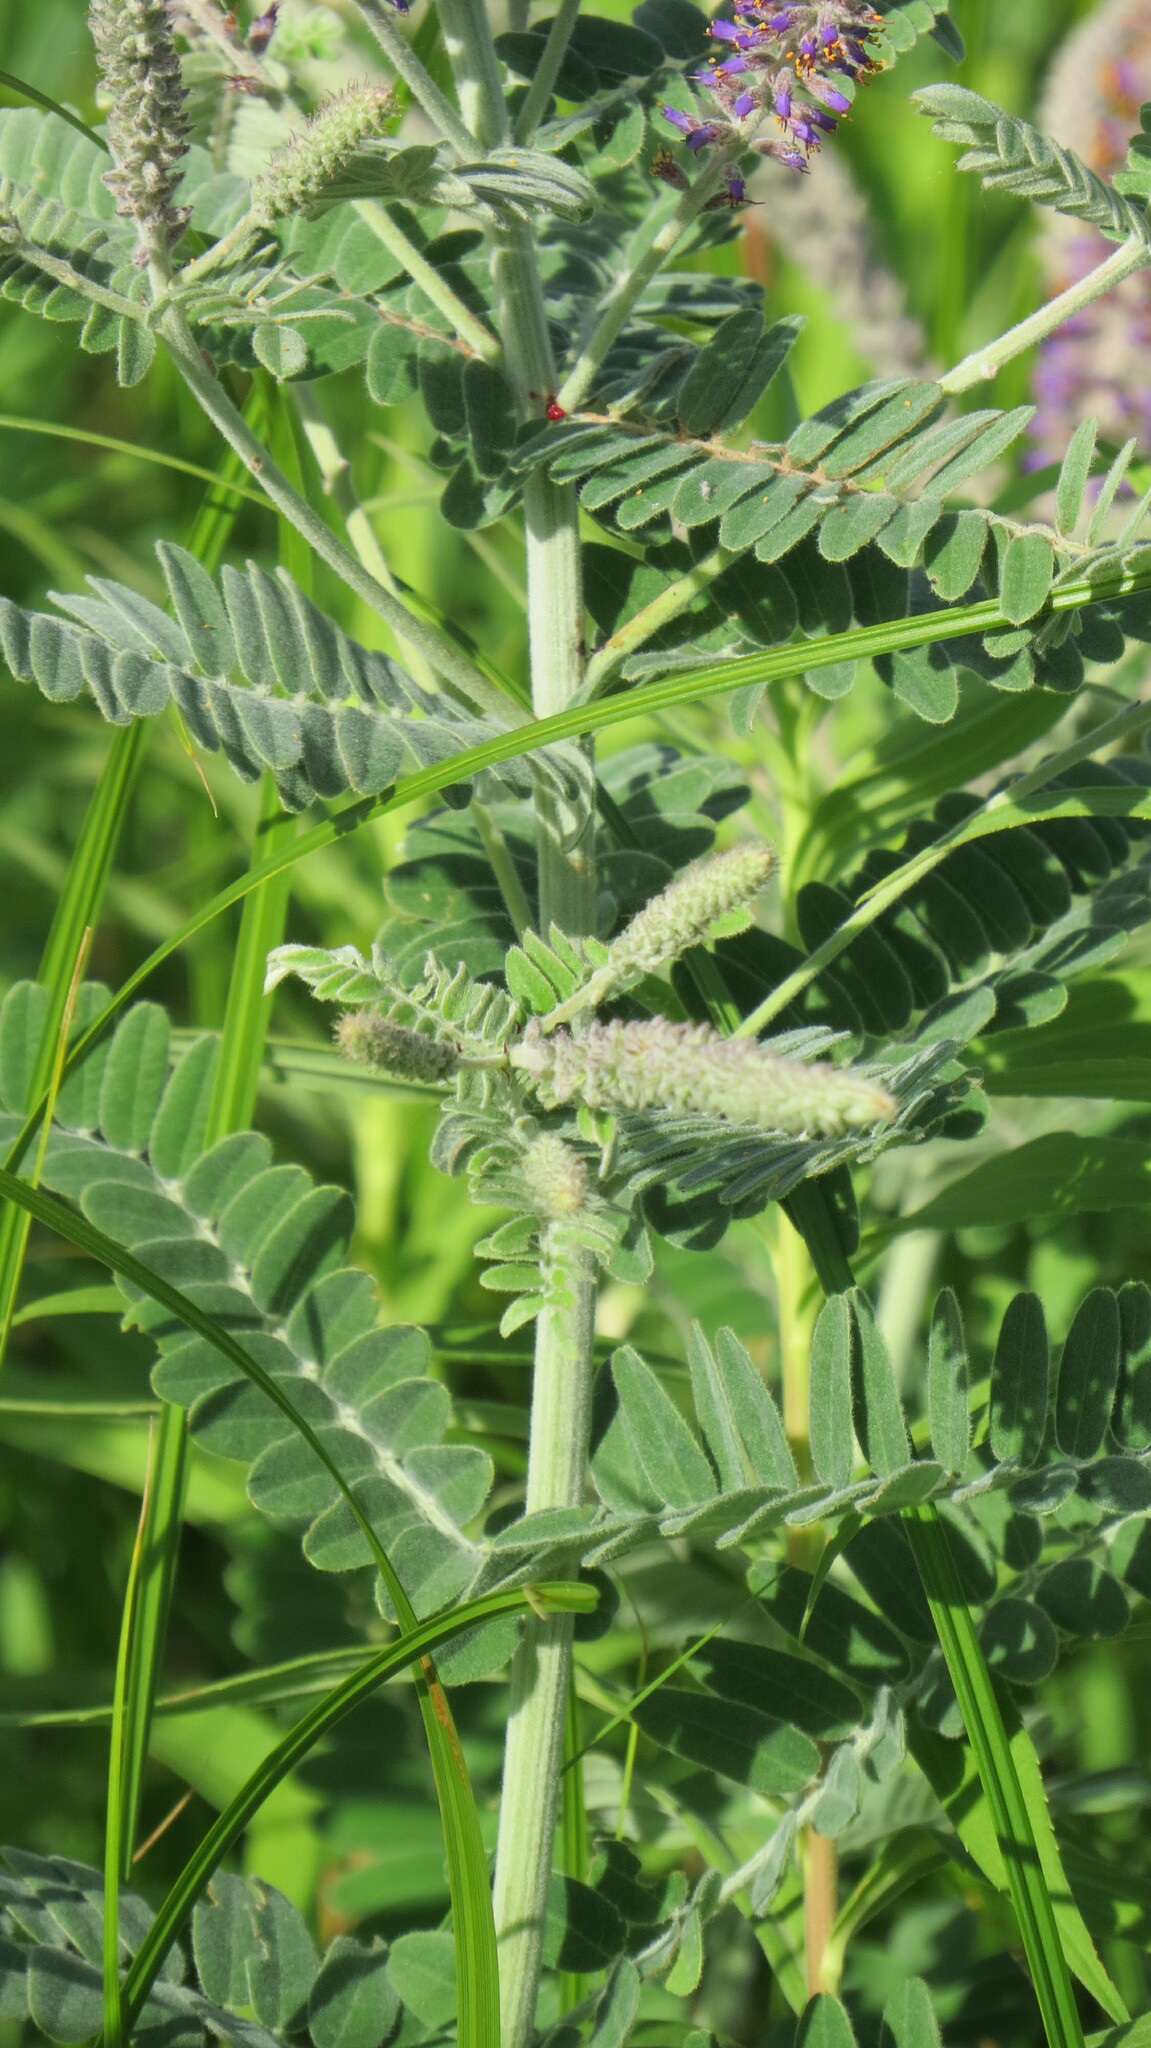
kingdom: Plantae
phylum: Tracheophyta
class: Magnoliopsida
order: Fabales
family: Fabaceae
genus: Amorpha
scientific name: Amorpha canescens
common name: Leadplant
